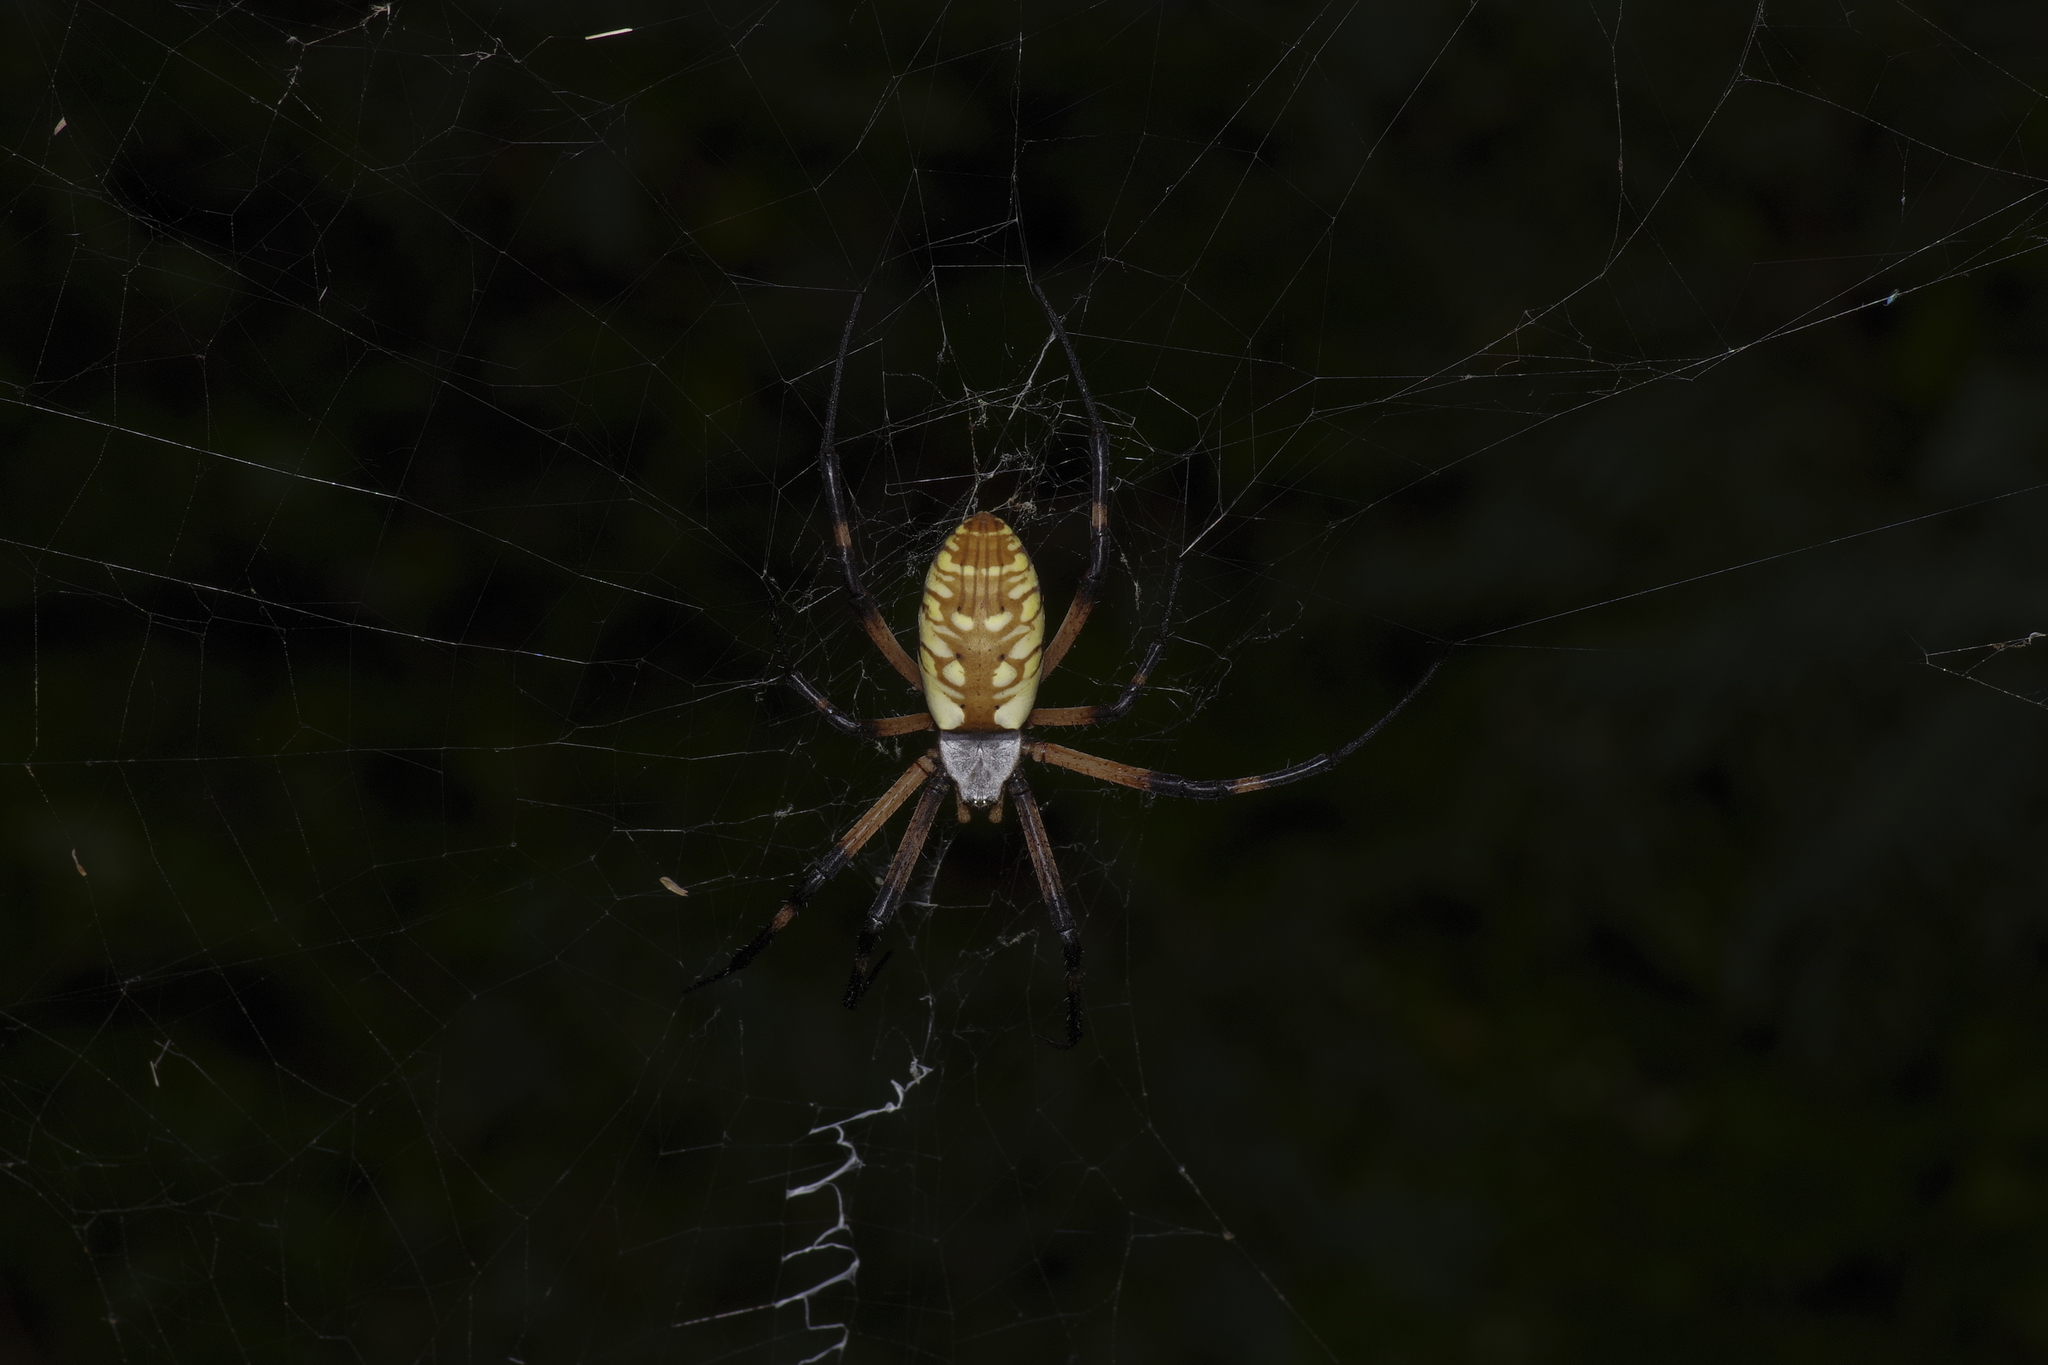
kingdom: Animalia
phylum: Arthropoda
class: Arachnida
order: Araneae
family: Araneidae
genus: Argiope
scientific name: Argiope aurantia
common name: Orb weavers
